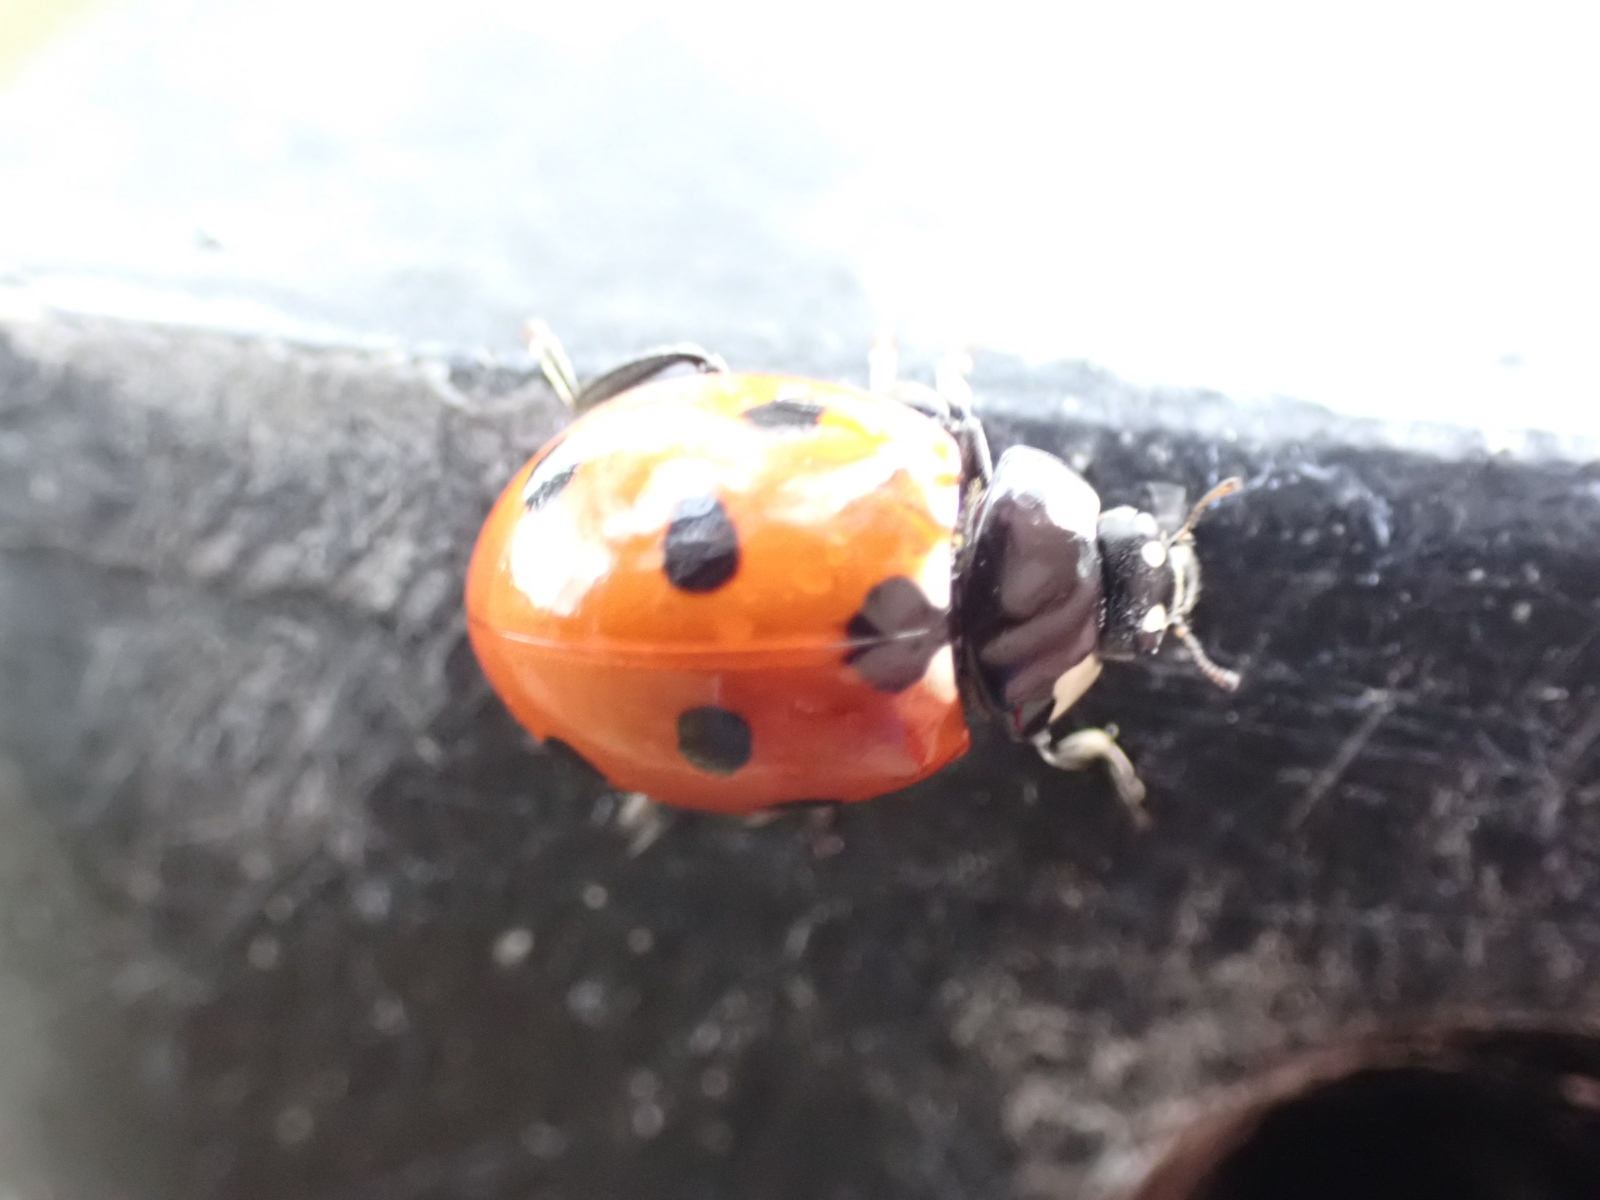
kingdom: Animalia
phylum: Arthropoda
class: Insecta
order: Coleoptera
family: Coccinellidae
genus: Coccinella
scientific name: Coccinella septempunctata
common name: Sevenspotted lady beetle
